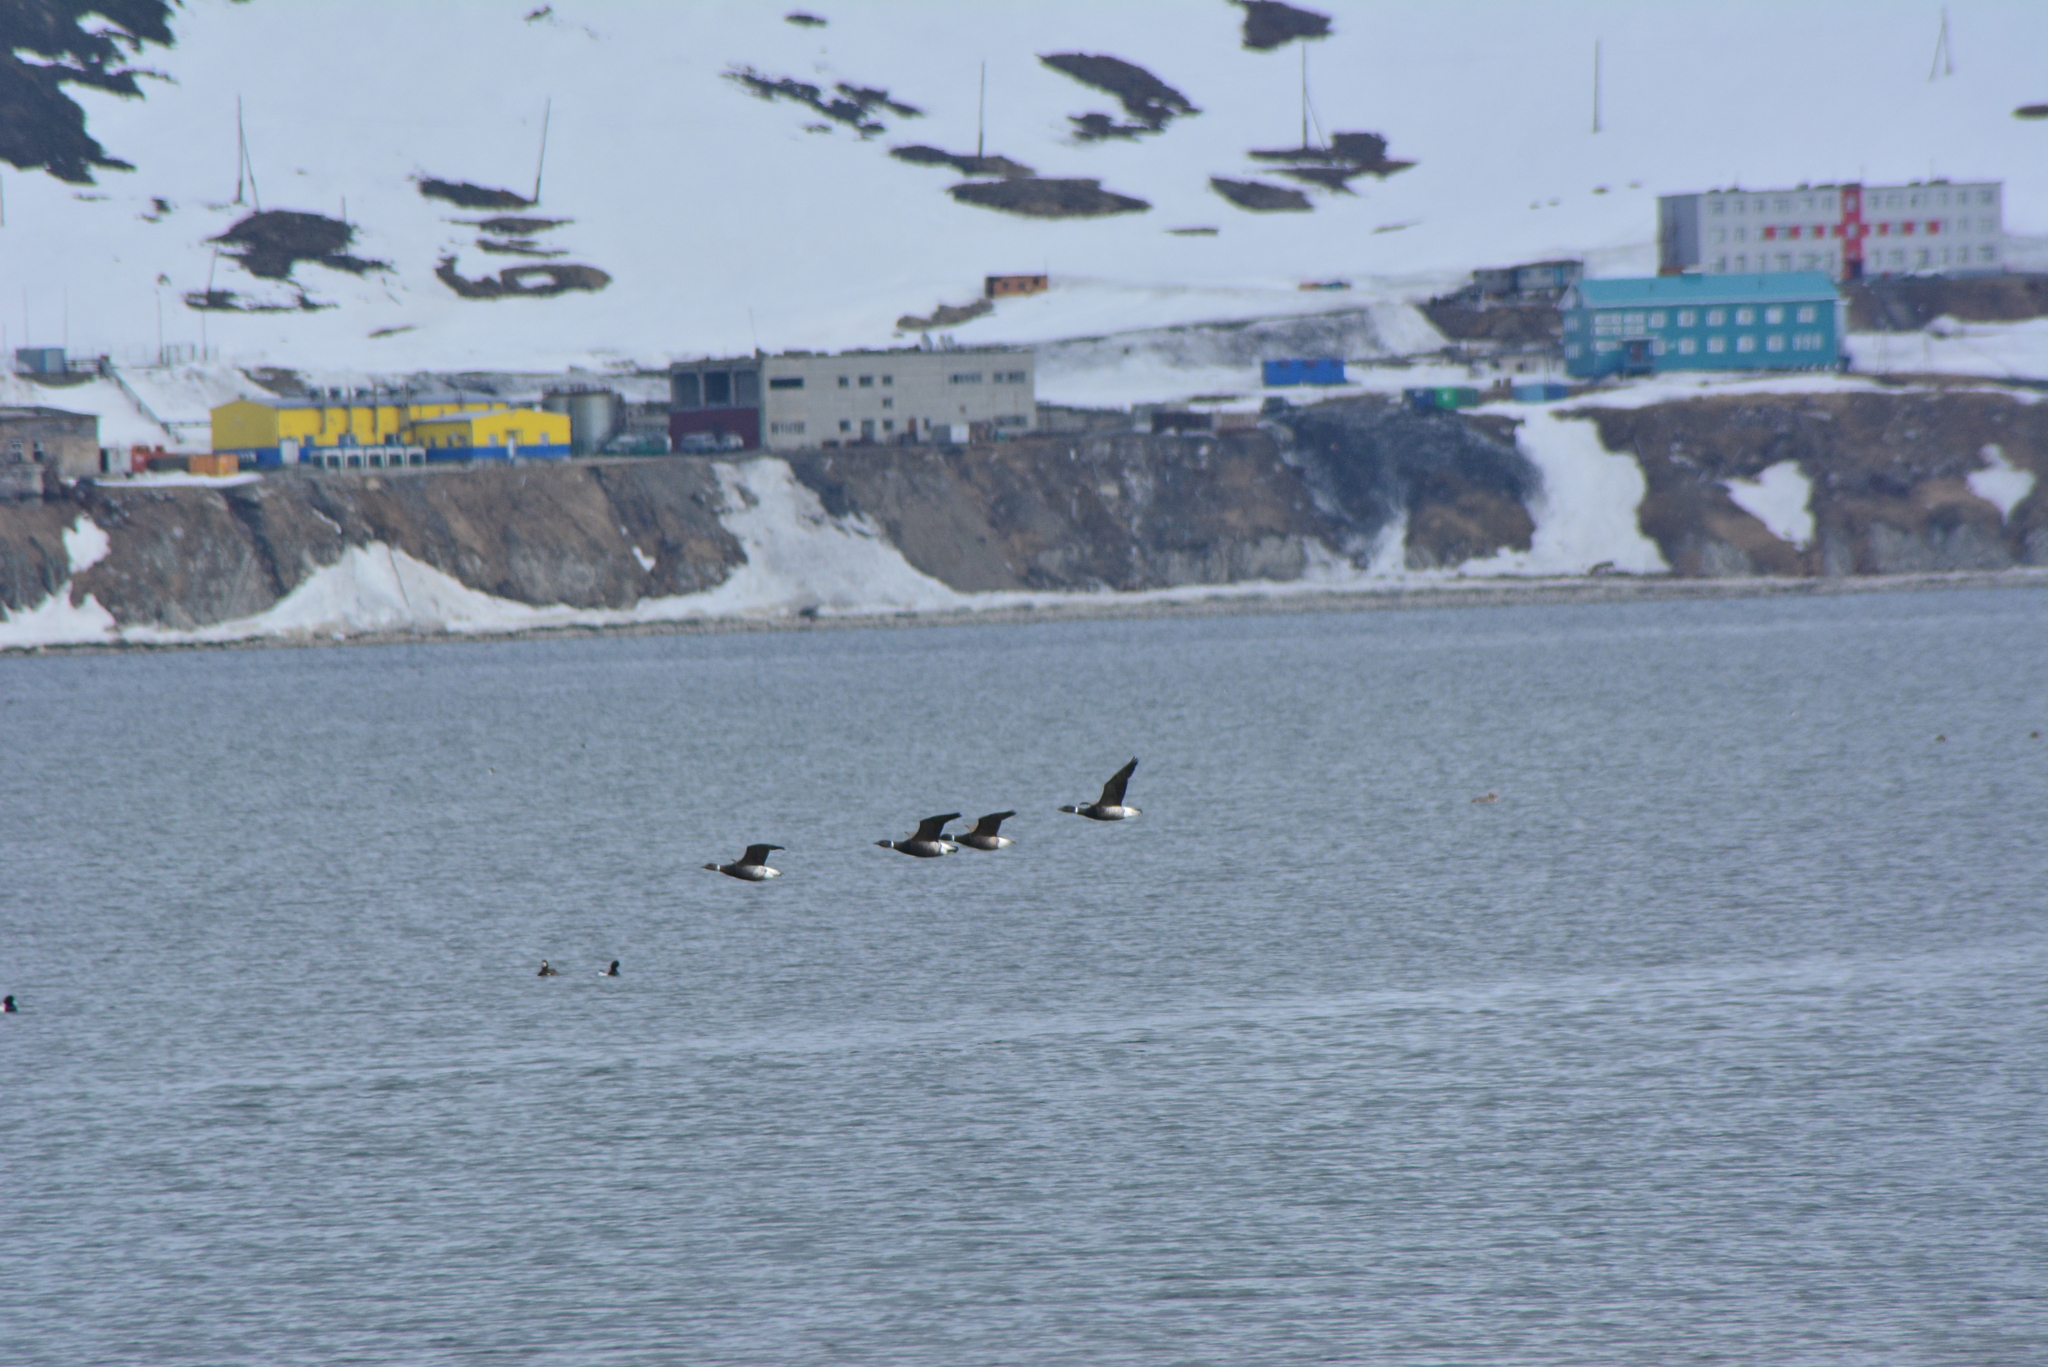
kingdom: Animalia
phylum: Chordata
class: Aves
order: Anseriformes
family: Anatidae
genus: Branta
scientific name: Branta bernicla
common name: Brant goose
